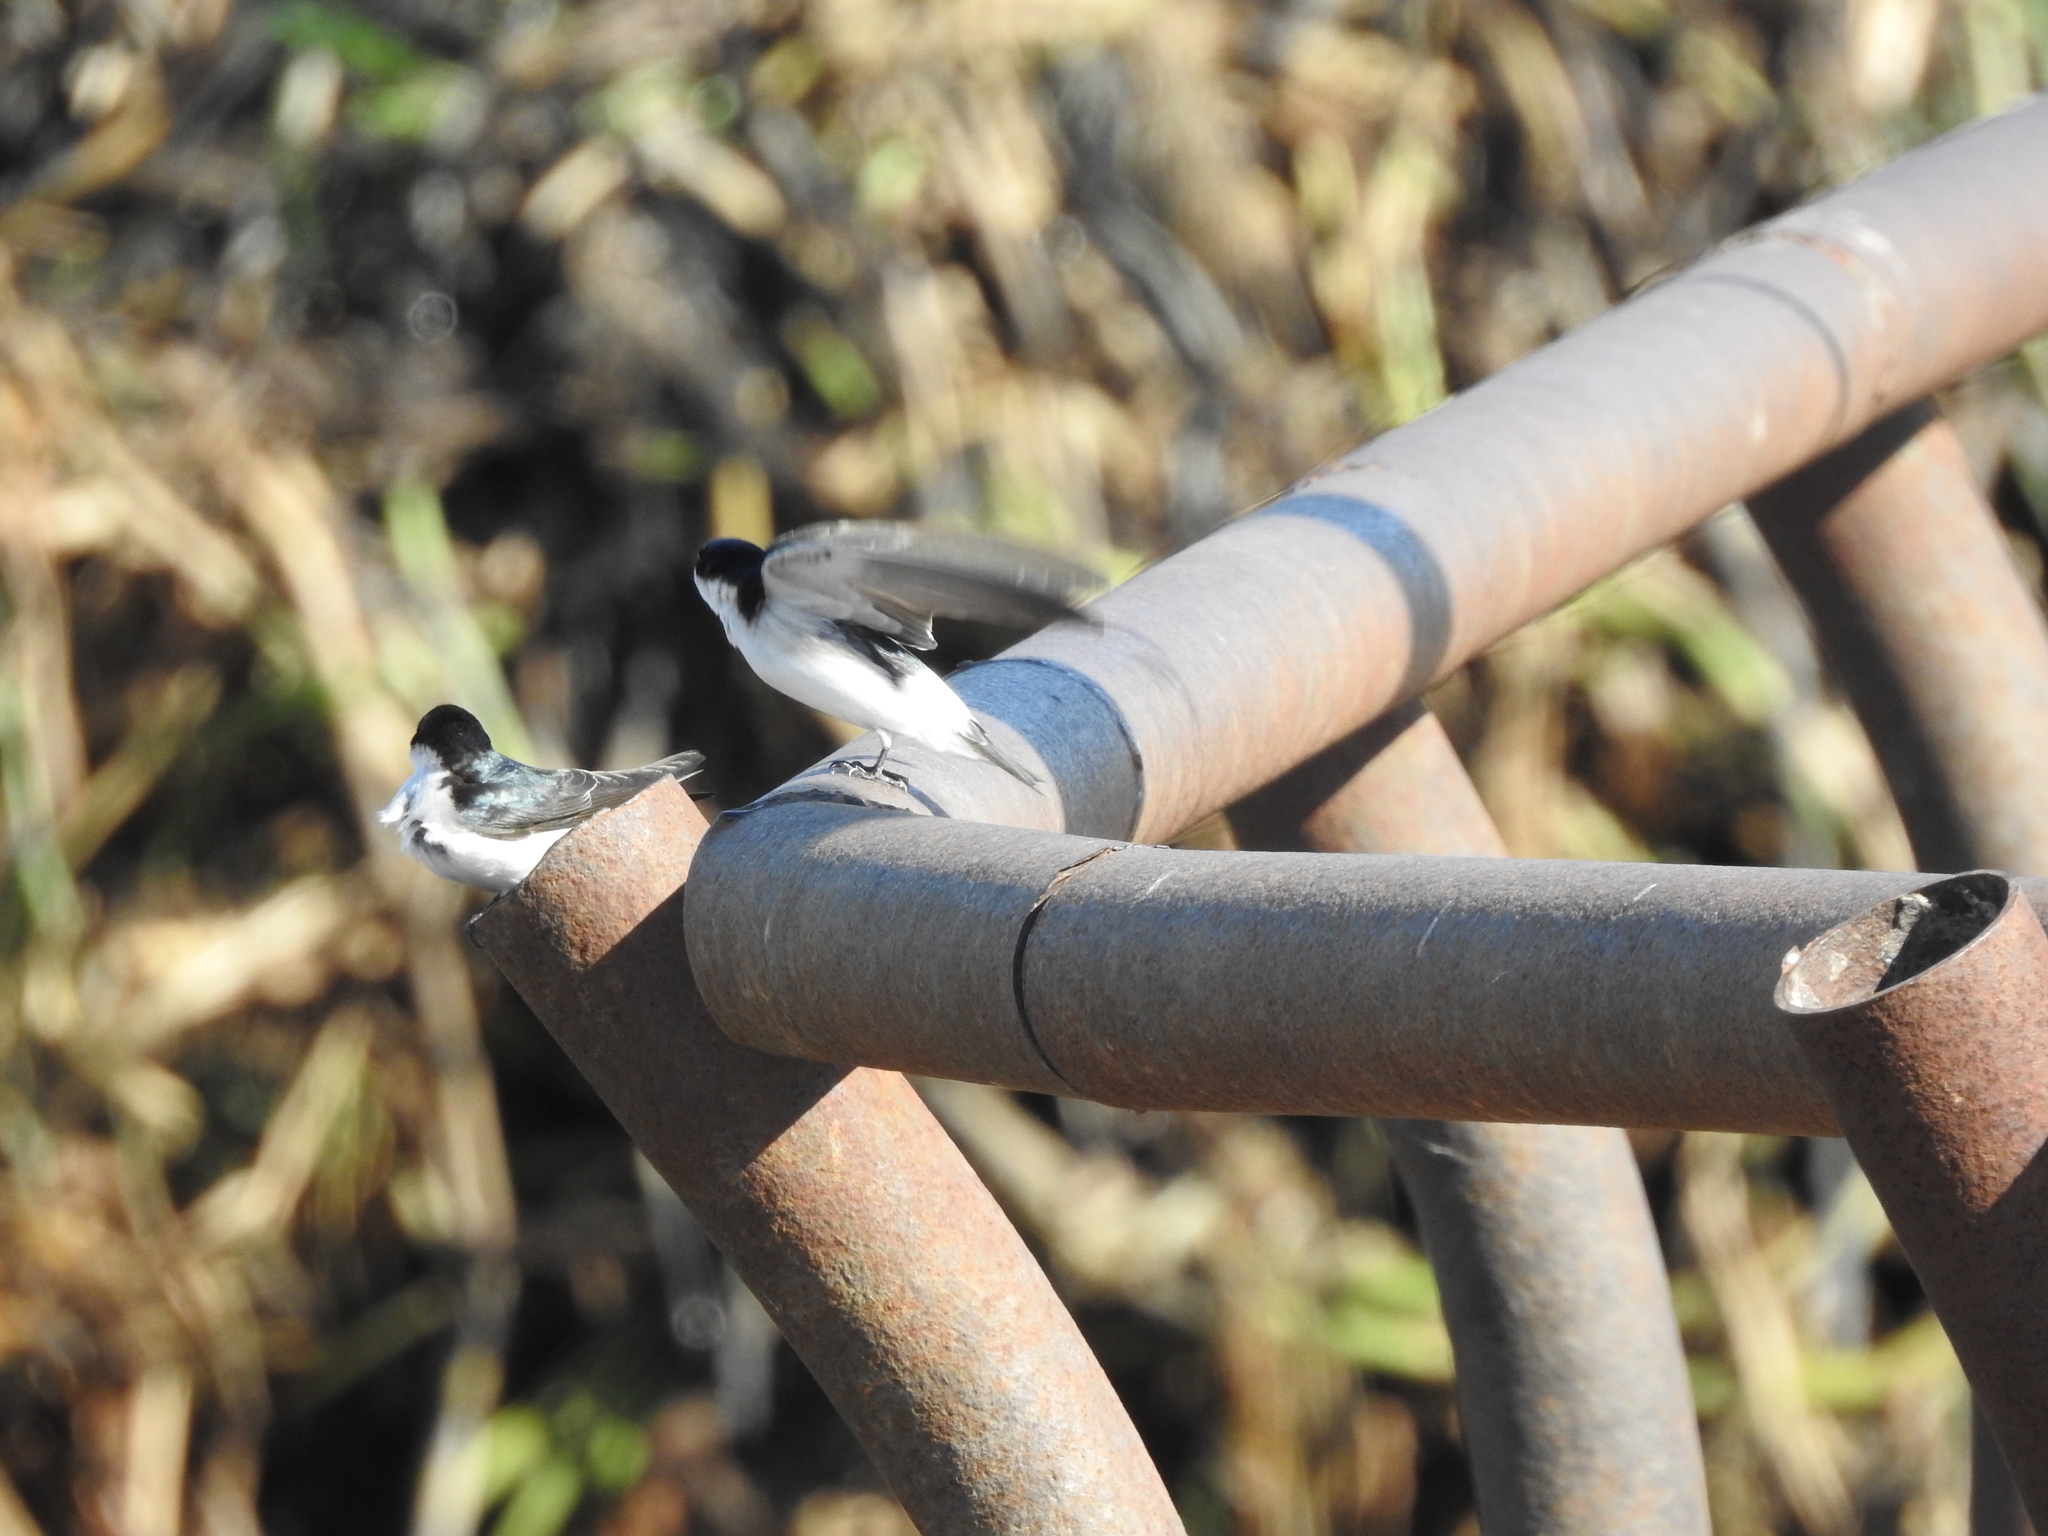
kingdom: Animalia
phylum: Chordata
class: Aves
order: Passeriformes
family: Hirundinidae
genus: Tachycineta
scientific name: Tachycineta leucorrhoa
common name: White-rumped swallow
